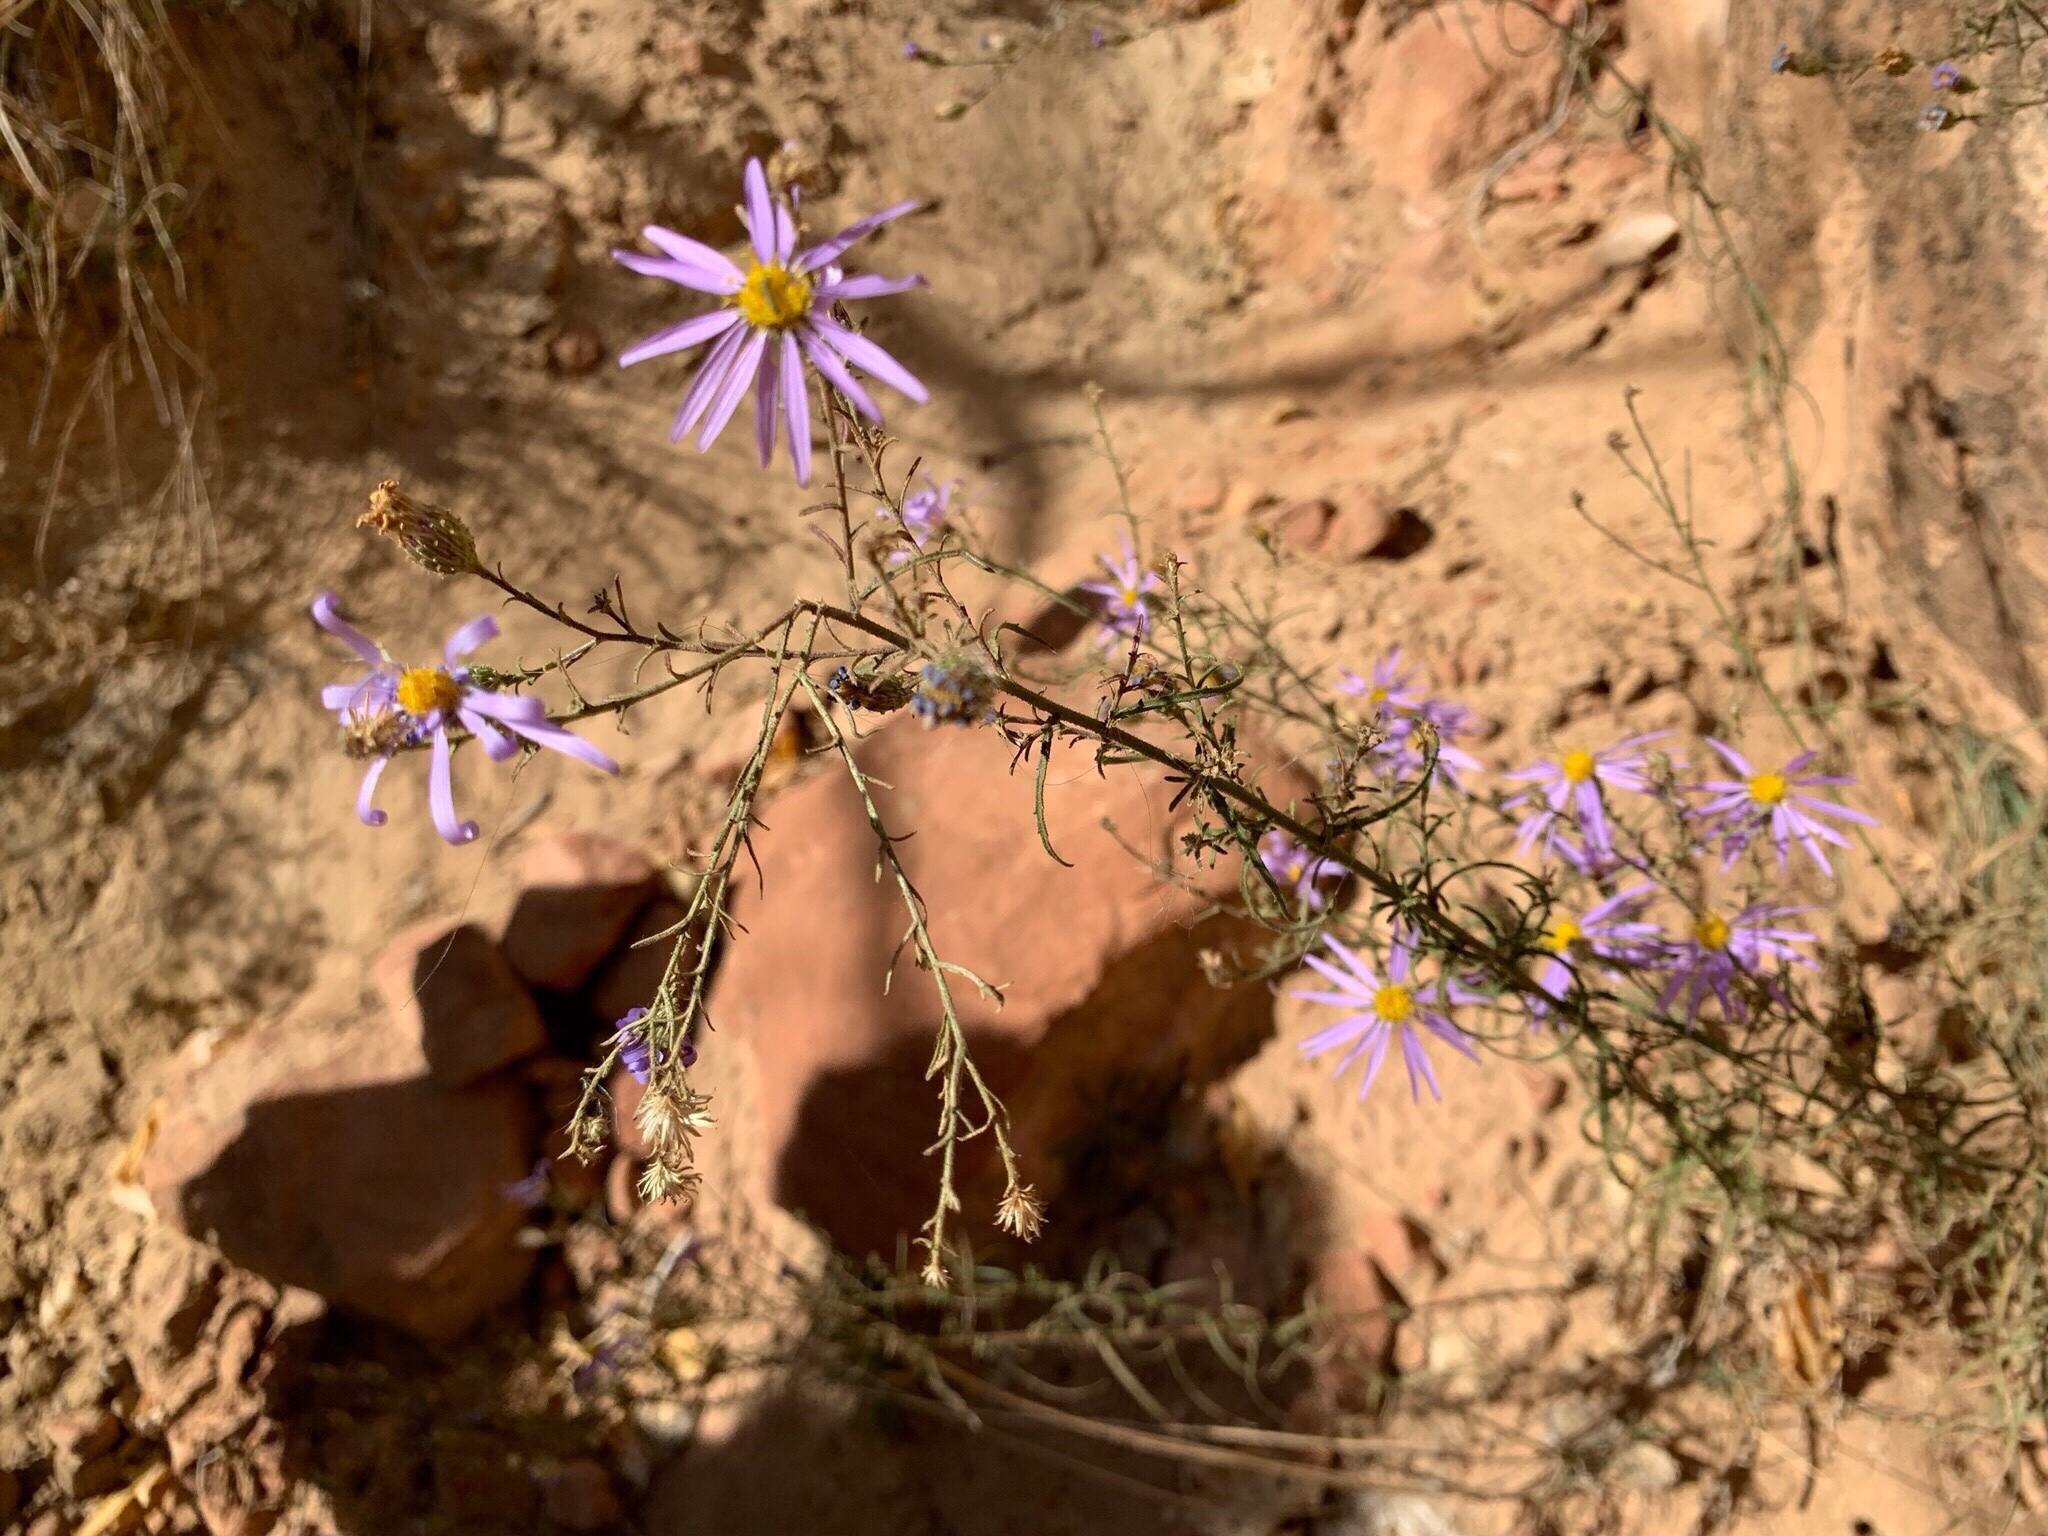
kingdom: Plantae
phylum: Tracheophyta
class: Magnoliopsida
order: Asterales
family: Asteraceae
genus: Dieteria
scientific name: Dieteria canescens
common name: Hoary-aster
